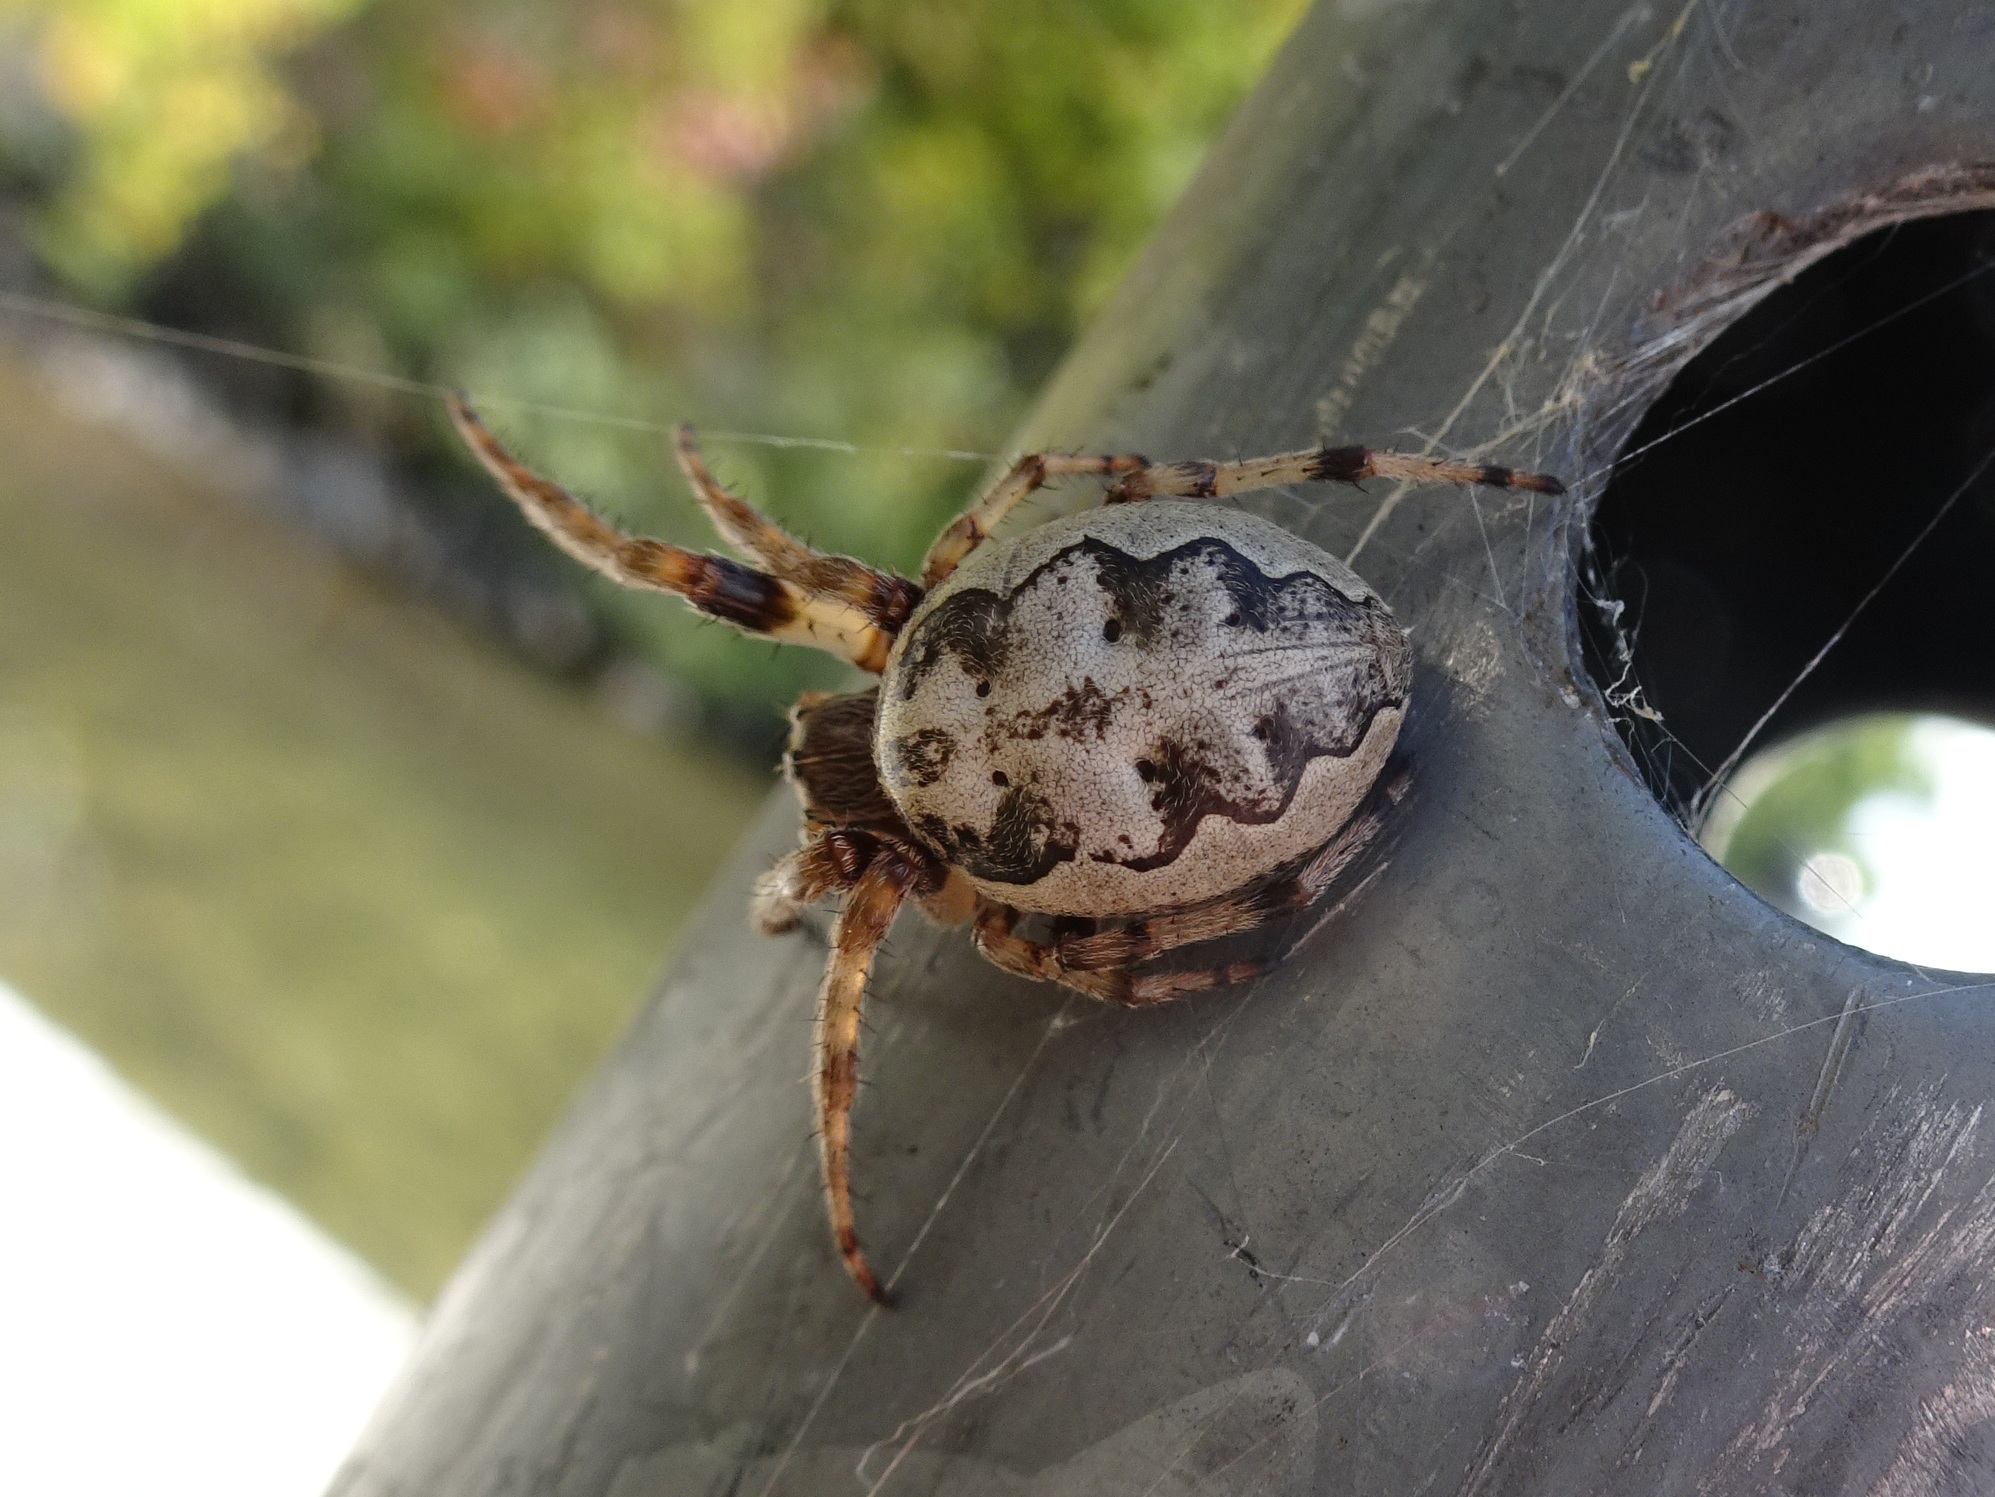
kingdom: Animalia
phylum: Arthropoda
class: Arachnida
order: Araneae
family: Araneidae
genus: Larinioides
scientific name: Larinioides cornutus
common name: Furrow orbweaver
